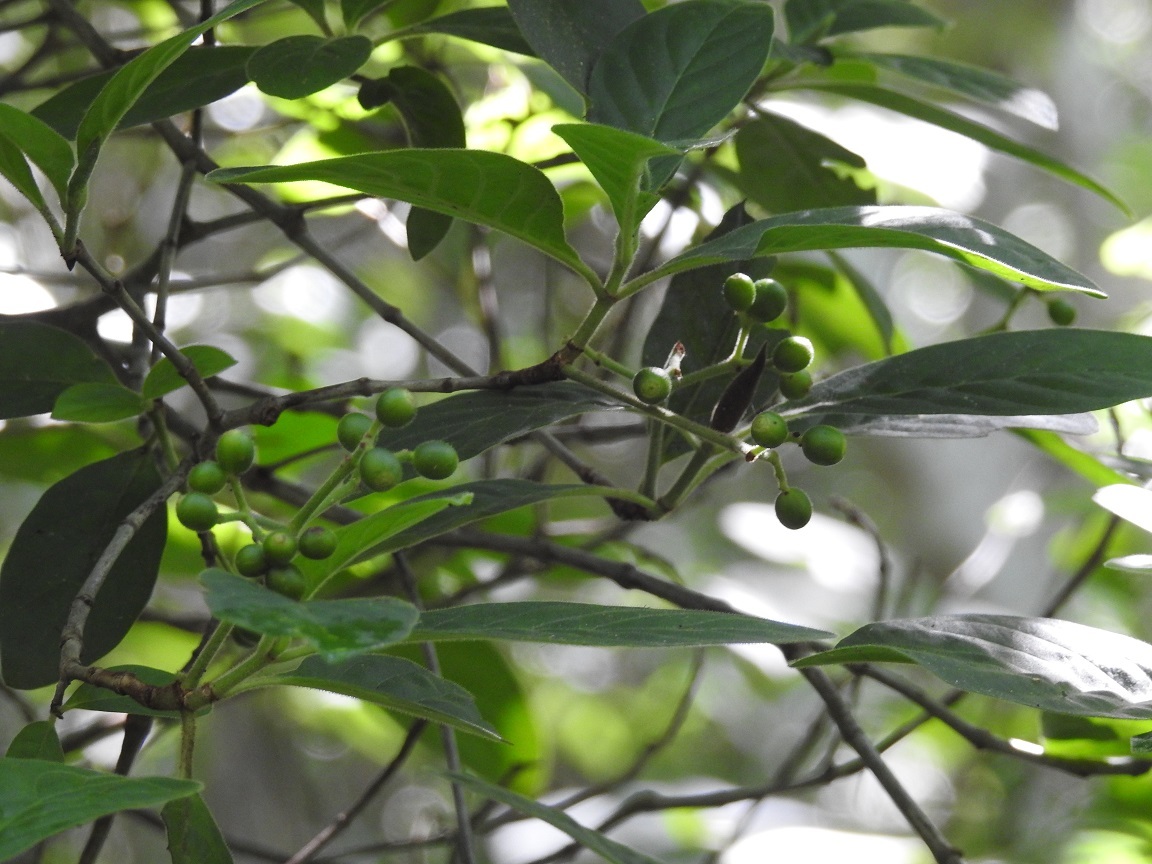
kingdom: Plantae
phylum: Tracheophyta
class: Magnoliopsida
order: Gentianales
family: Rubiaceae
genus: Psychotria
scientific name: Psychotria erythrocarpa
